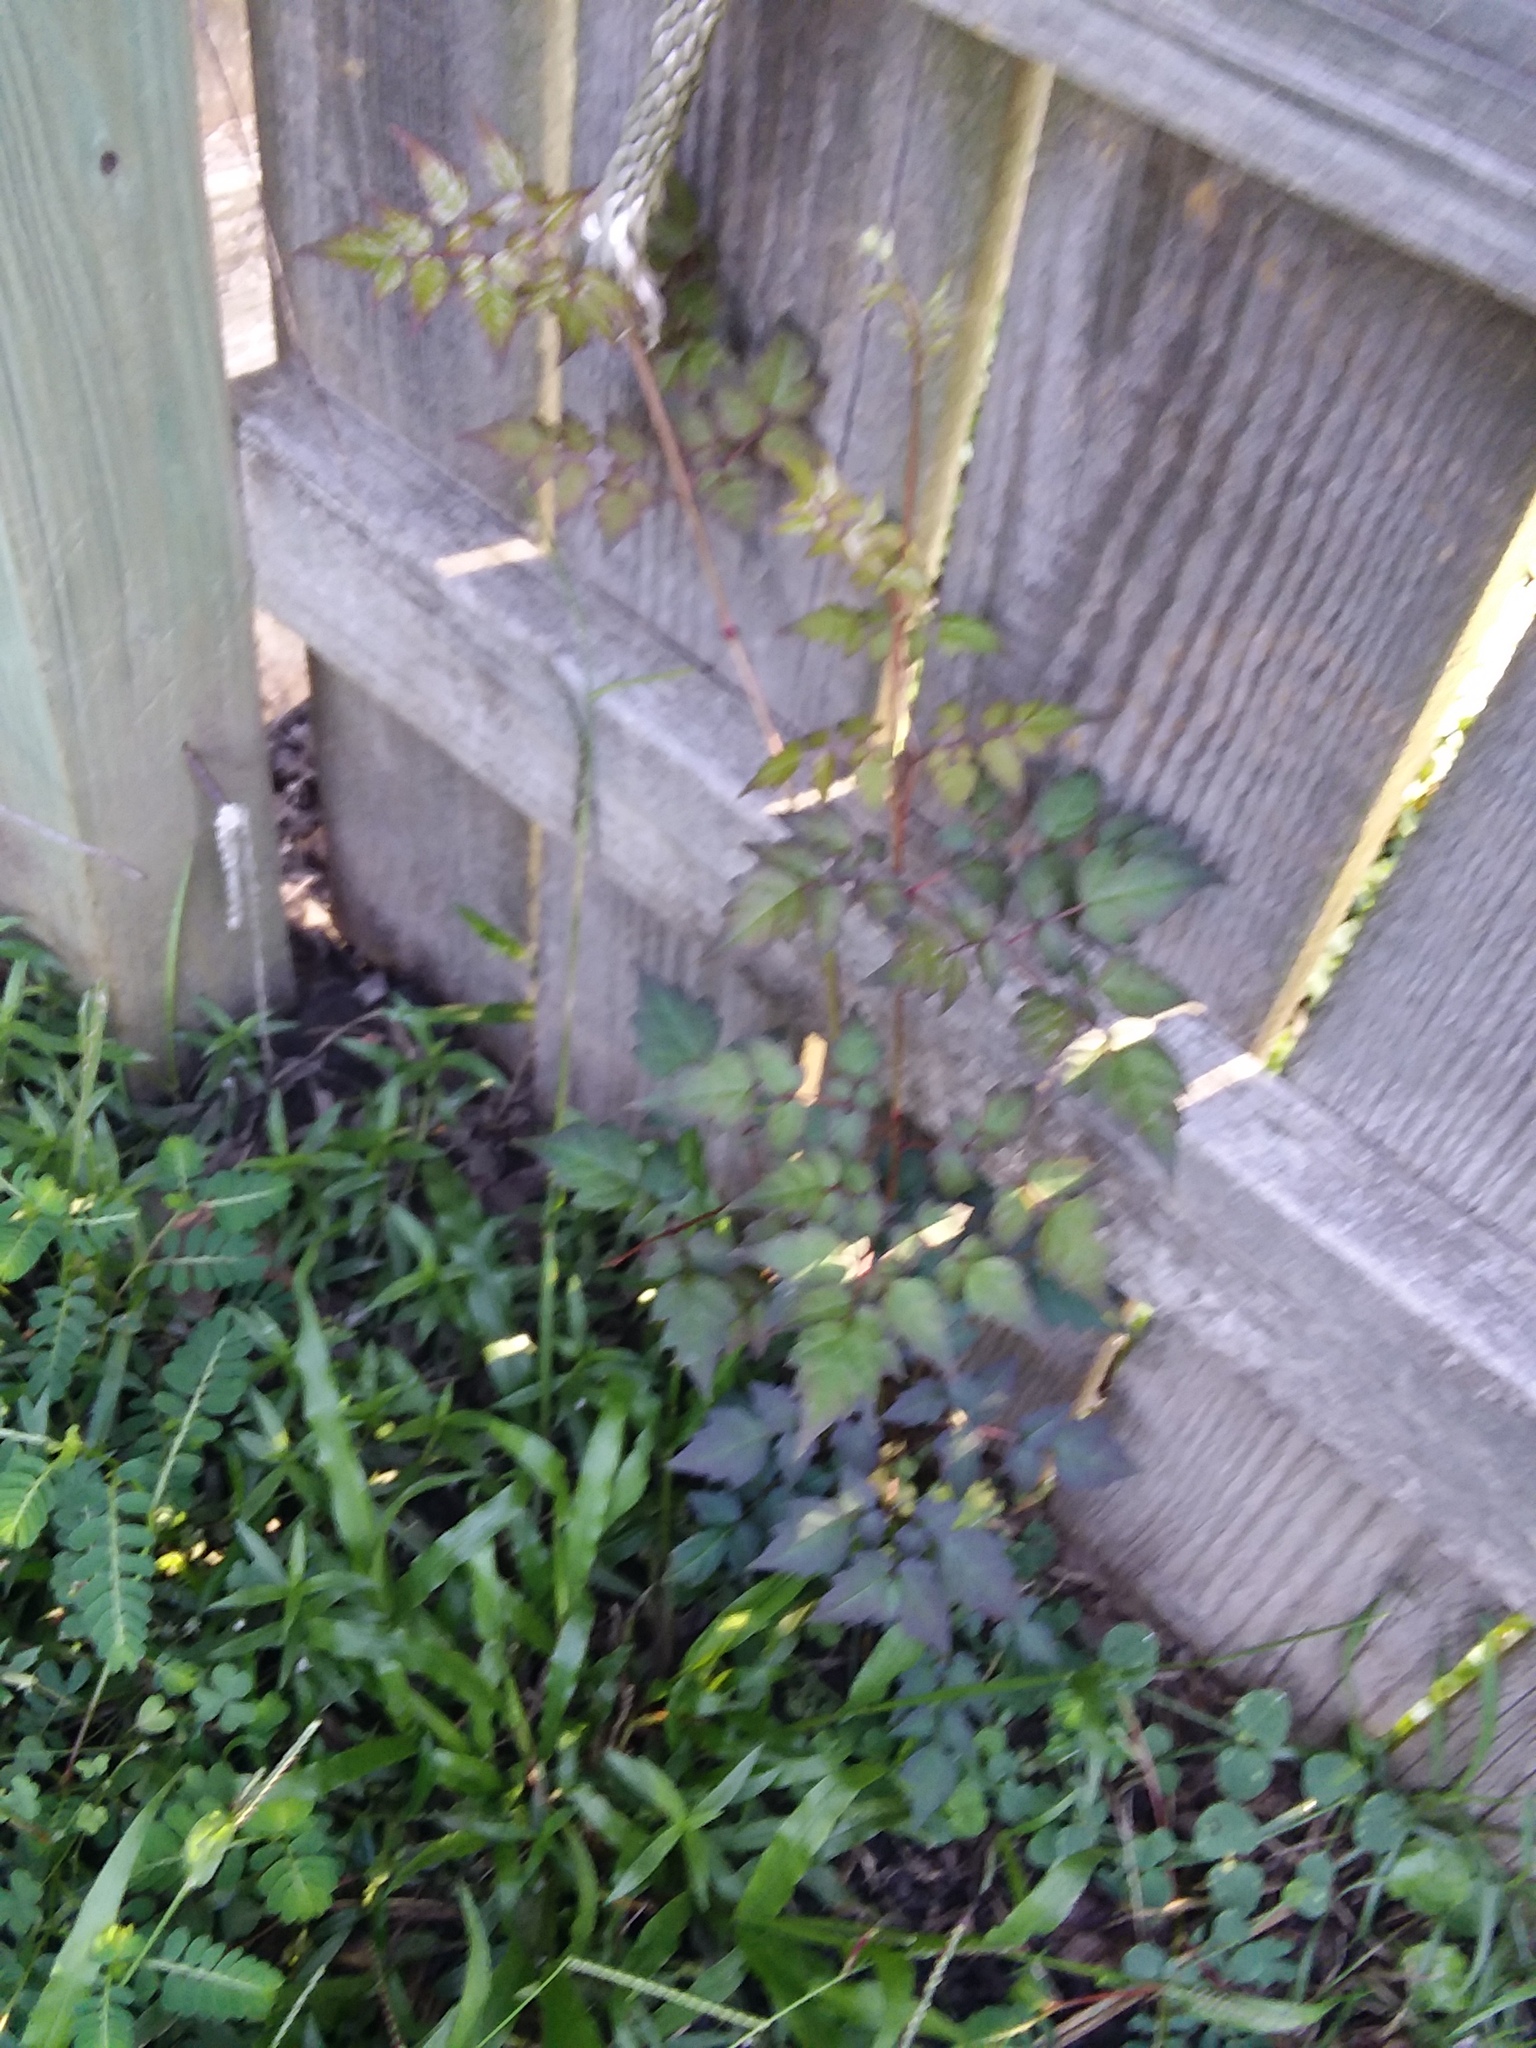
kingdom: Plantae
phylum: Tracheophyta
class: Magnoliopsida
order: Vitales
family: Vitaceae
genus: Nekemias
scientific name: Nekemias arborea
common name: Peppervine
